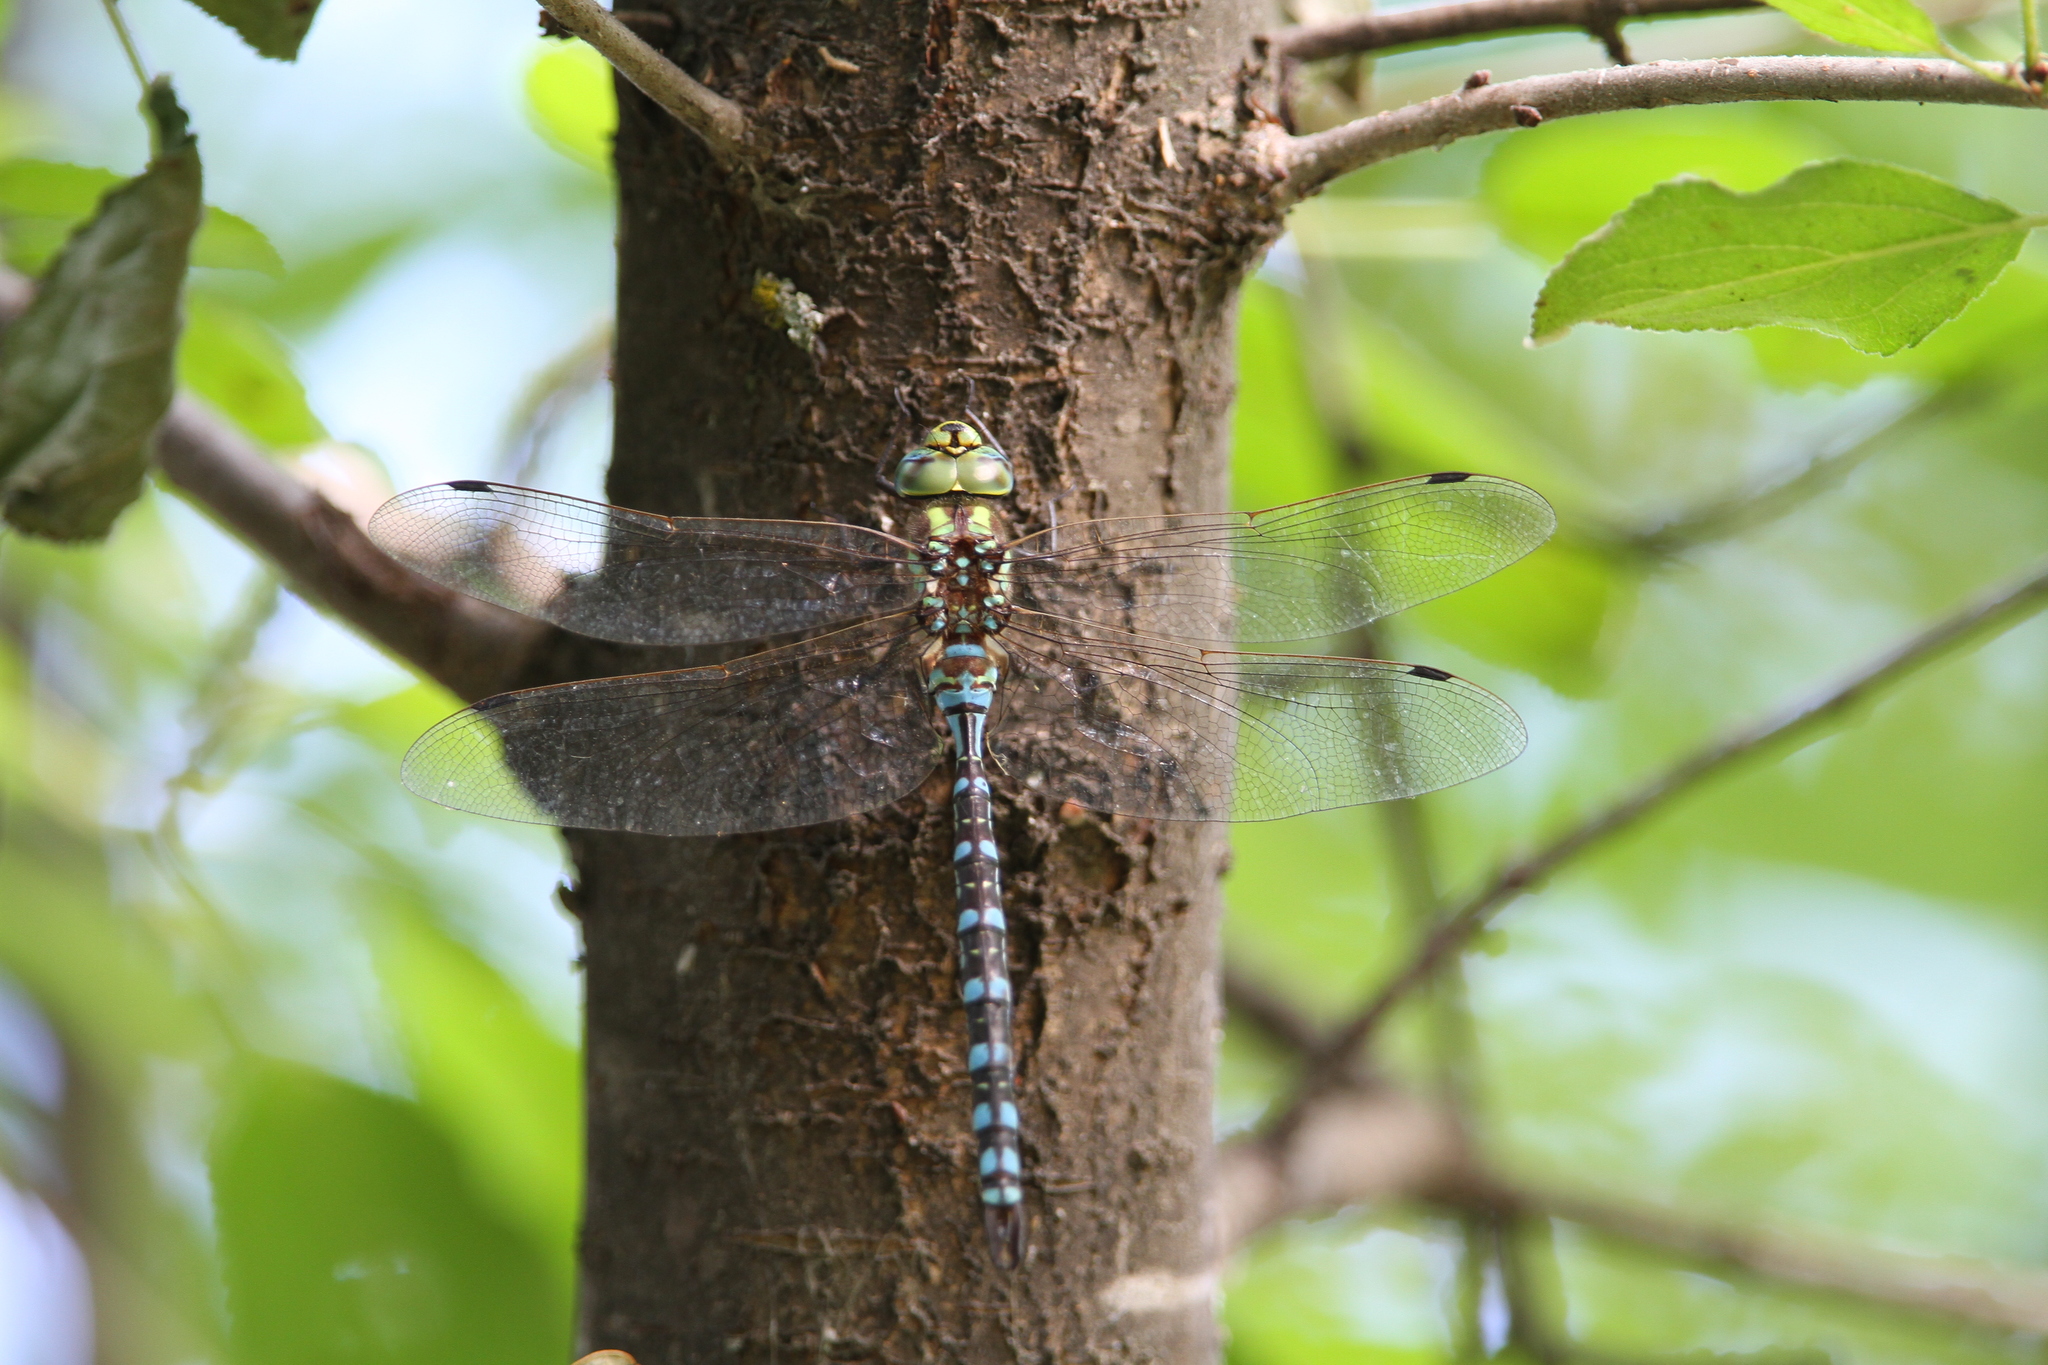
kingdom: Animalia
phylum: Arthropoda
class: Insecta
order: Odonata
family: Aeshnidae
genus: Aeshna
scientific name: Aeshna constricta
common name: Lance-tipped darner
